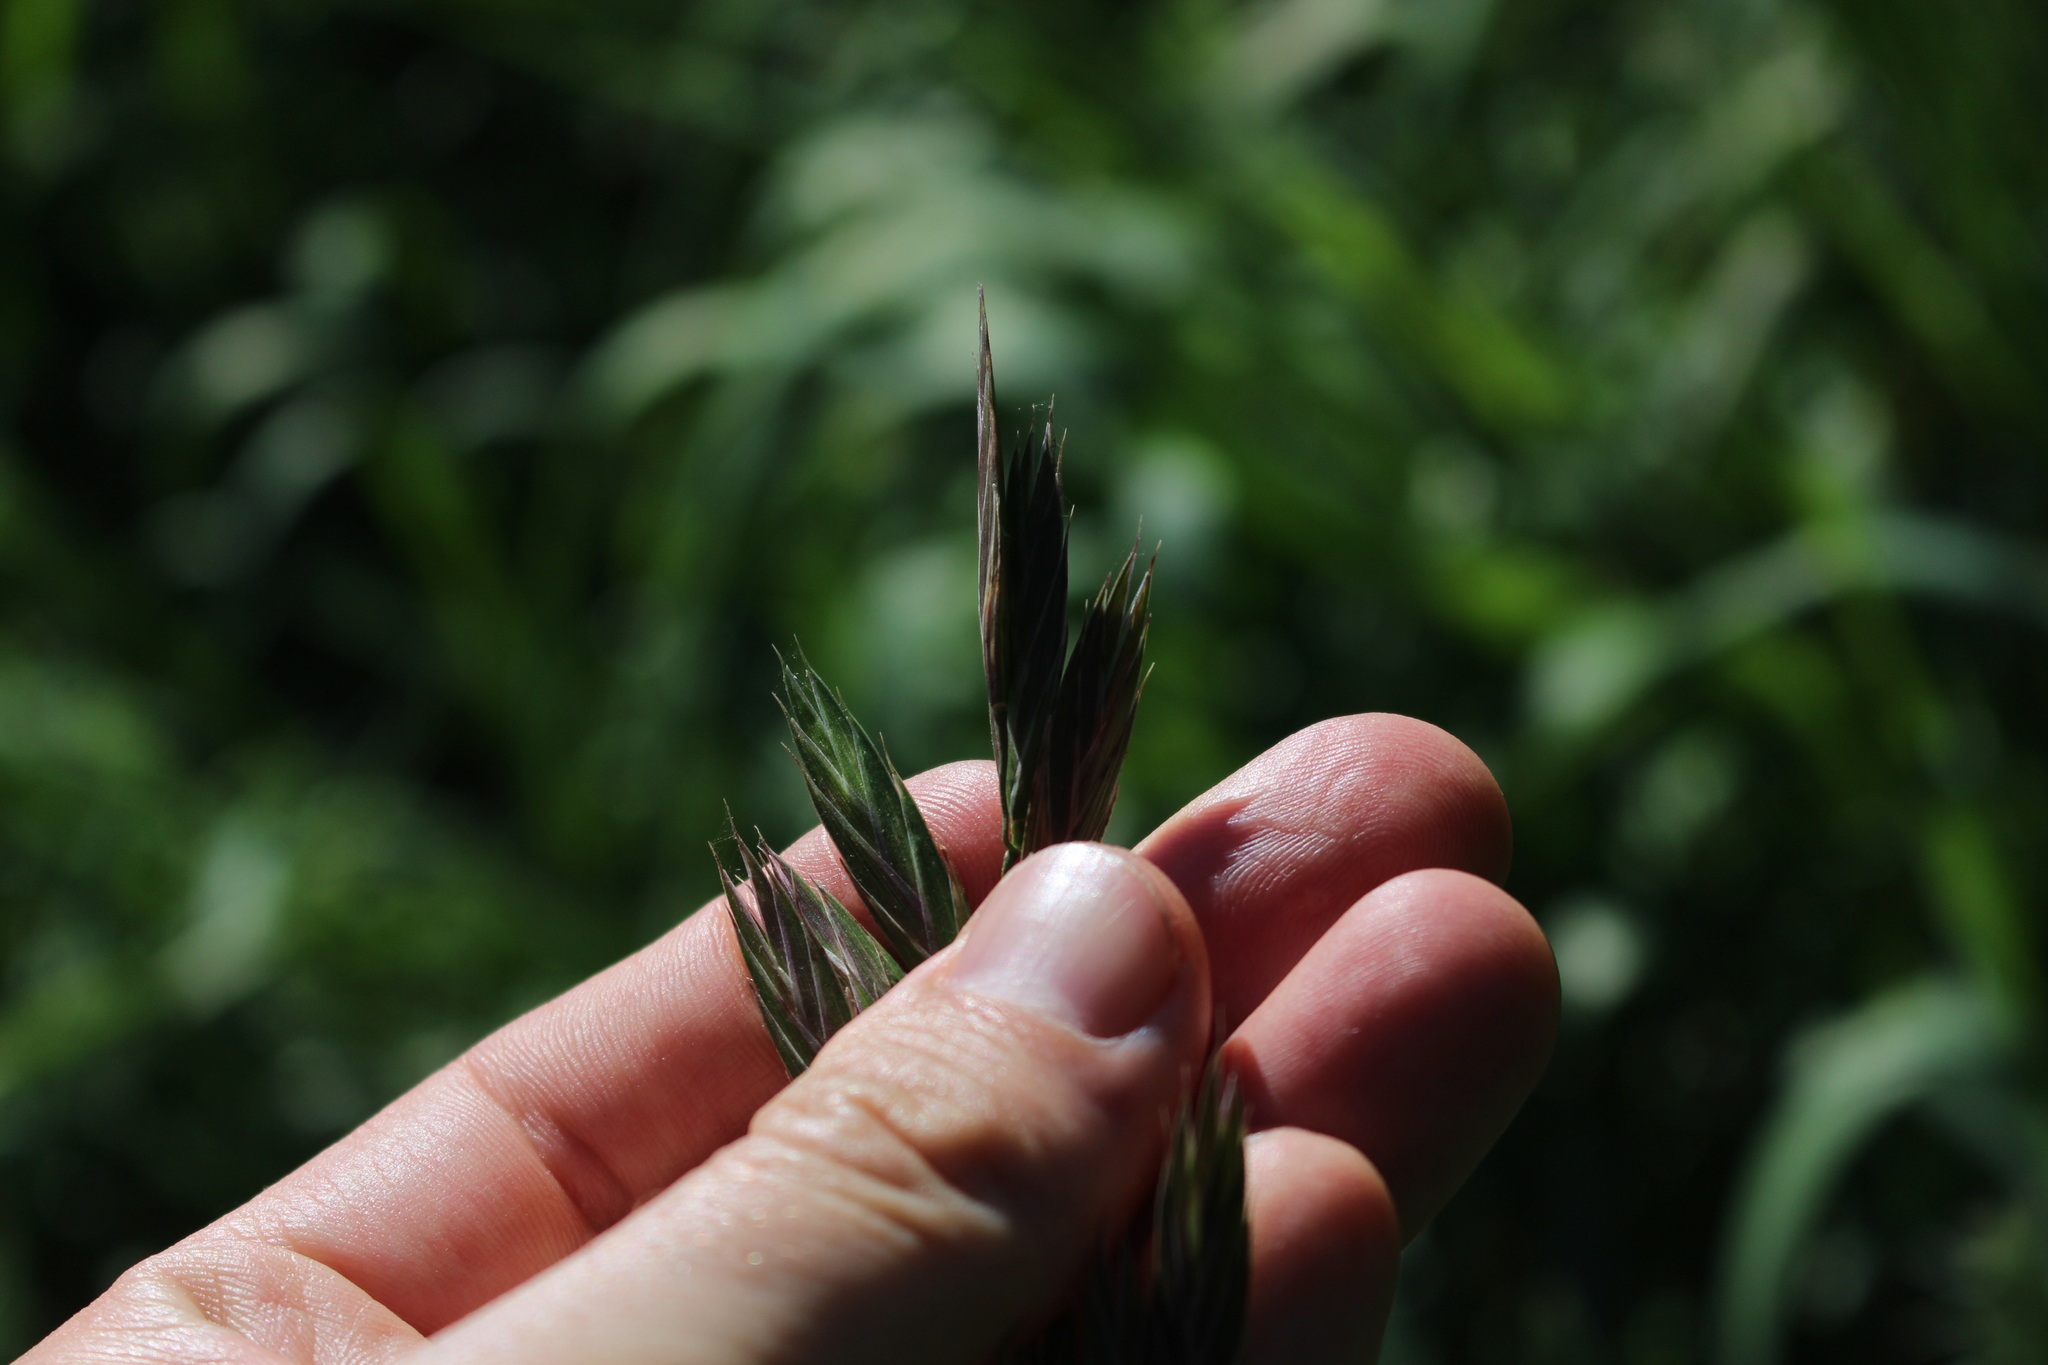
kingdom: Plantae
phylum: Tracheophyta
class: Liliopsida
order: Poales
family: Poaceae
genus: Bromus
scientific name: Bromus catharticus
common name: Rescuegrass
